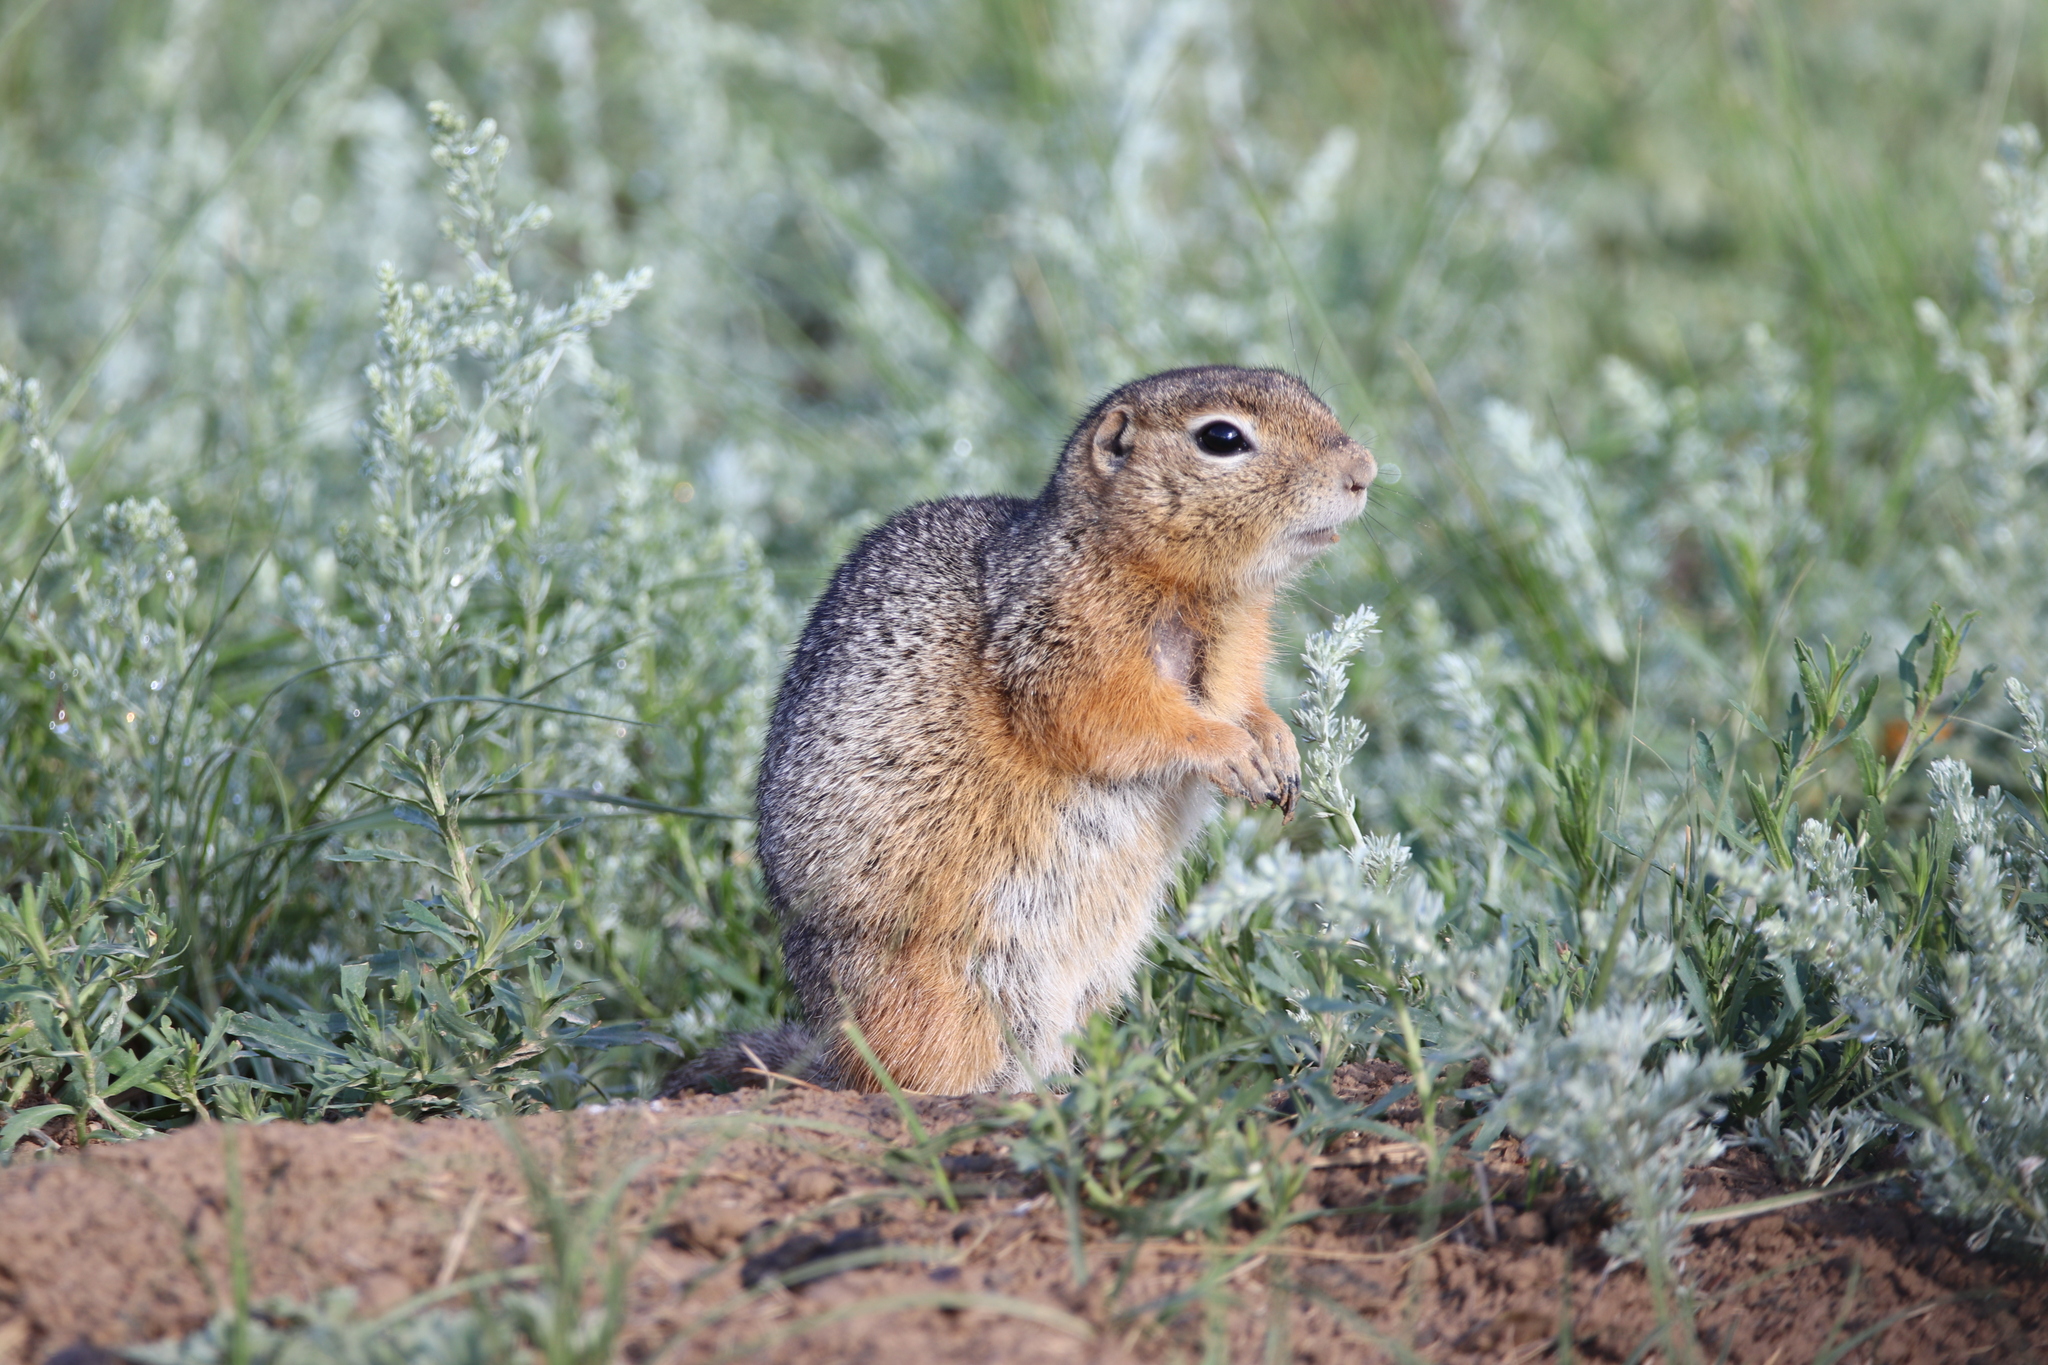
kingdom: Animalia
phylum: Chordata
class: Mammalia
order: Rodentia
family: Sciuridae
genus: Urocitellus
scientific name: Urocitellus undulatus
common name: Long-tailed ground squirrel
